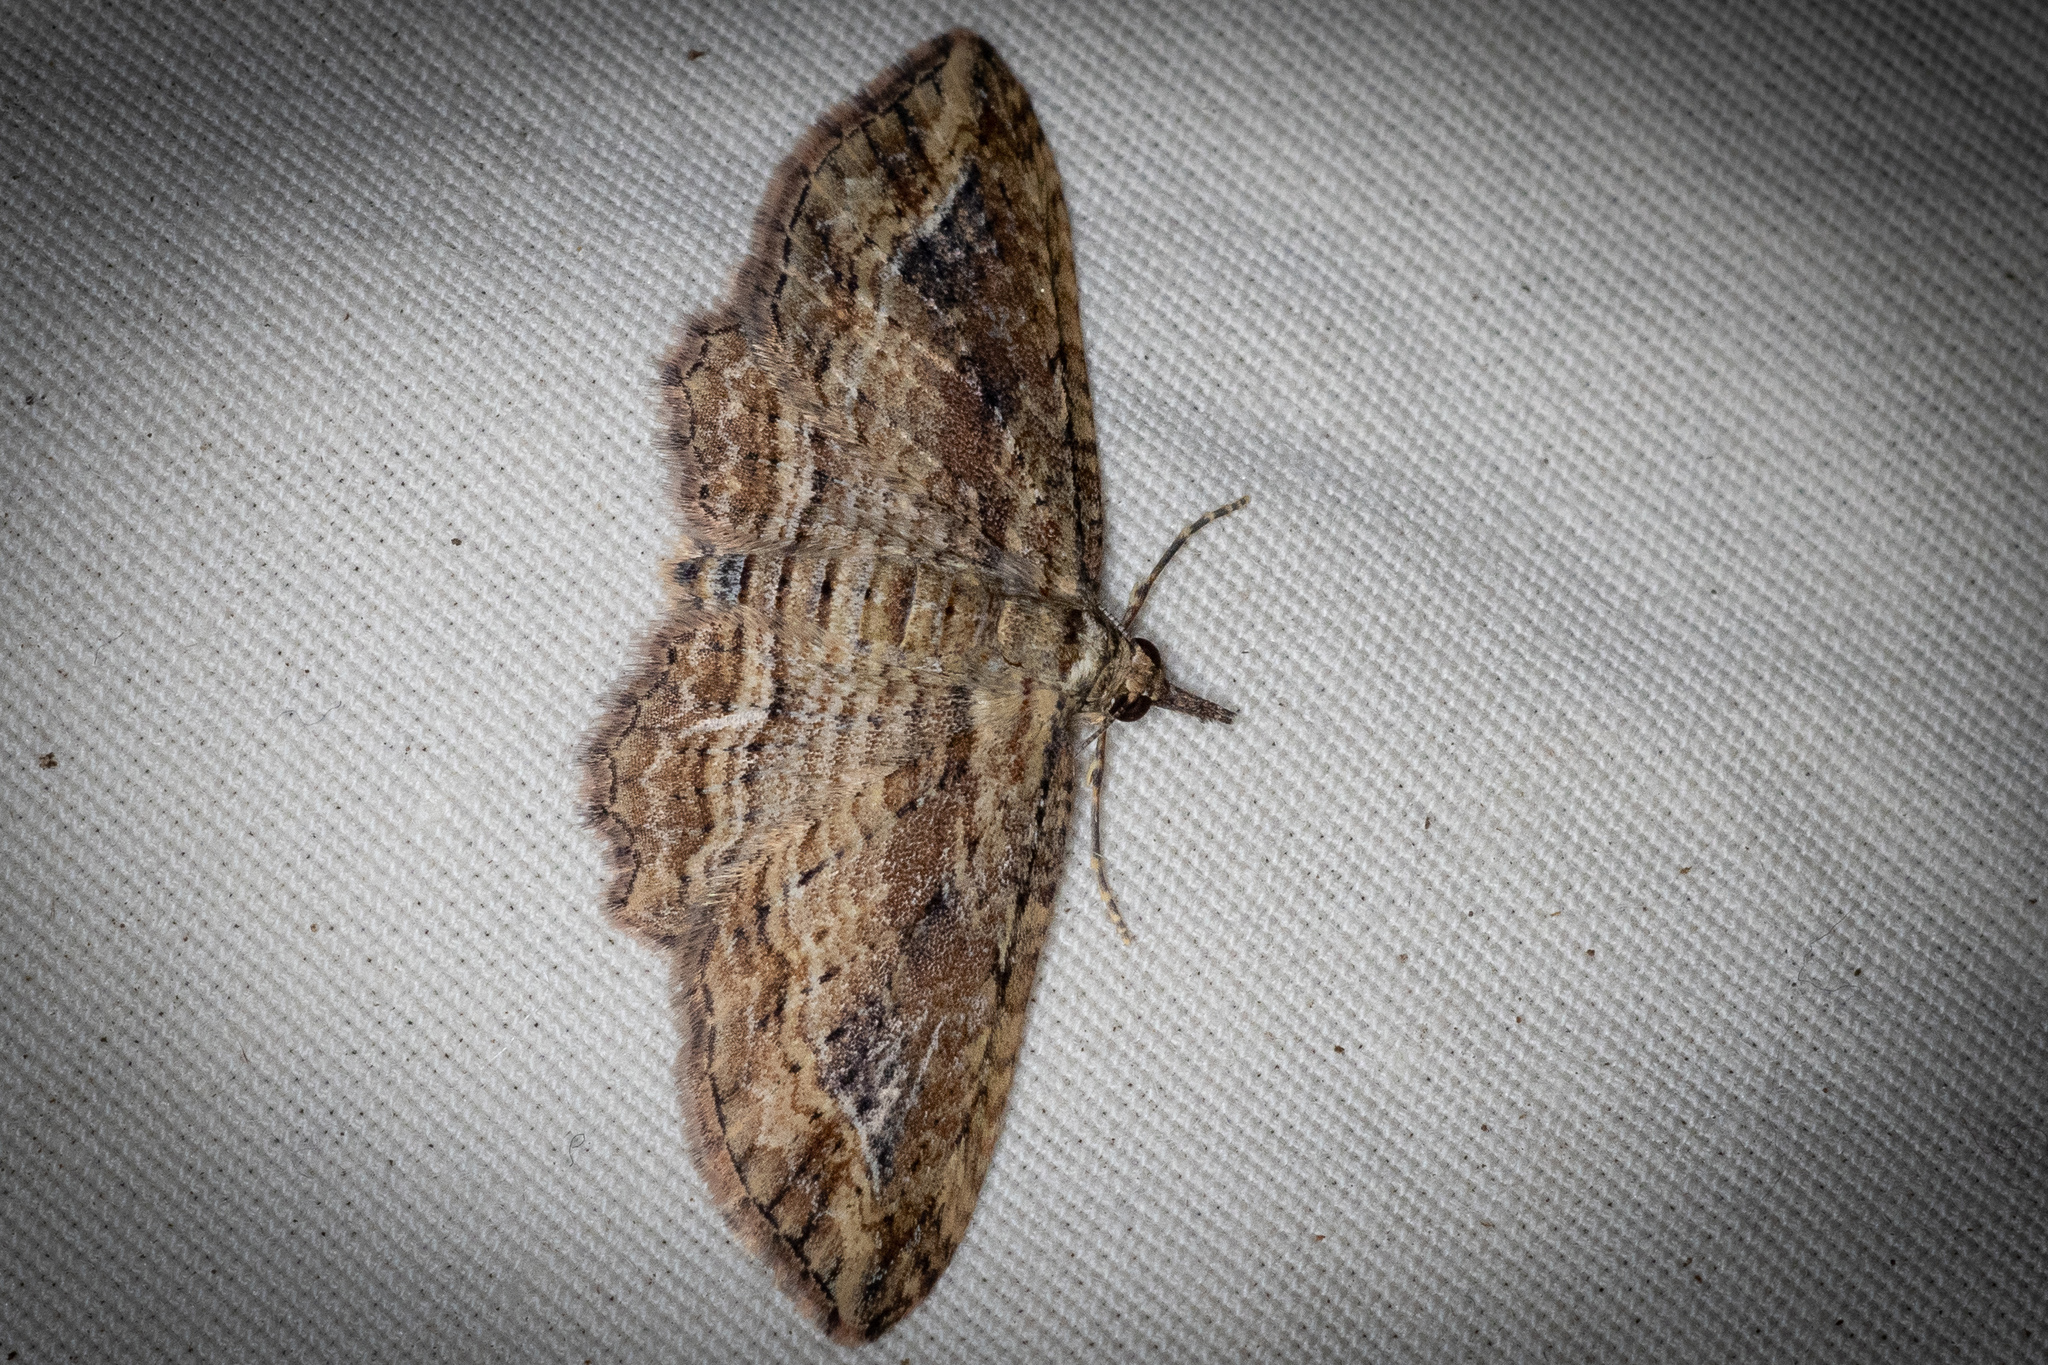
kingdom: Animalia
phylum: Arthropoda
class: Insecta
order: Lepidoptera
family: Geometridae
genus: Chloroclystis
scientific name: Chloroclystis filata
